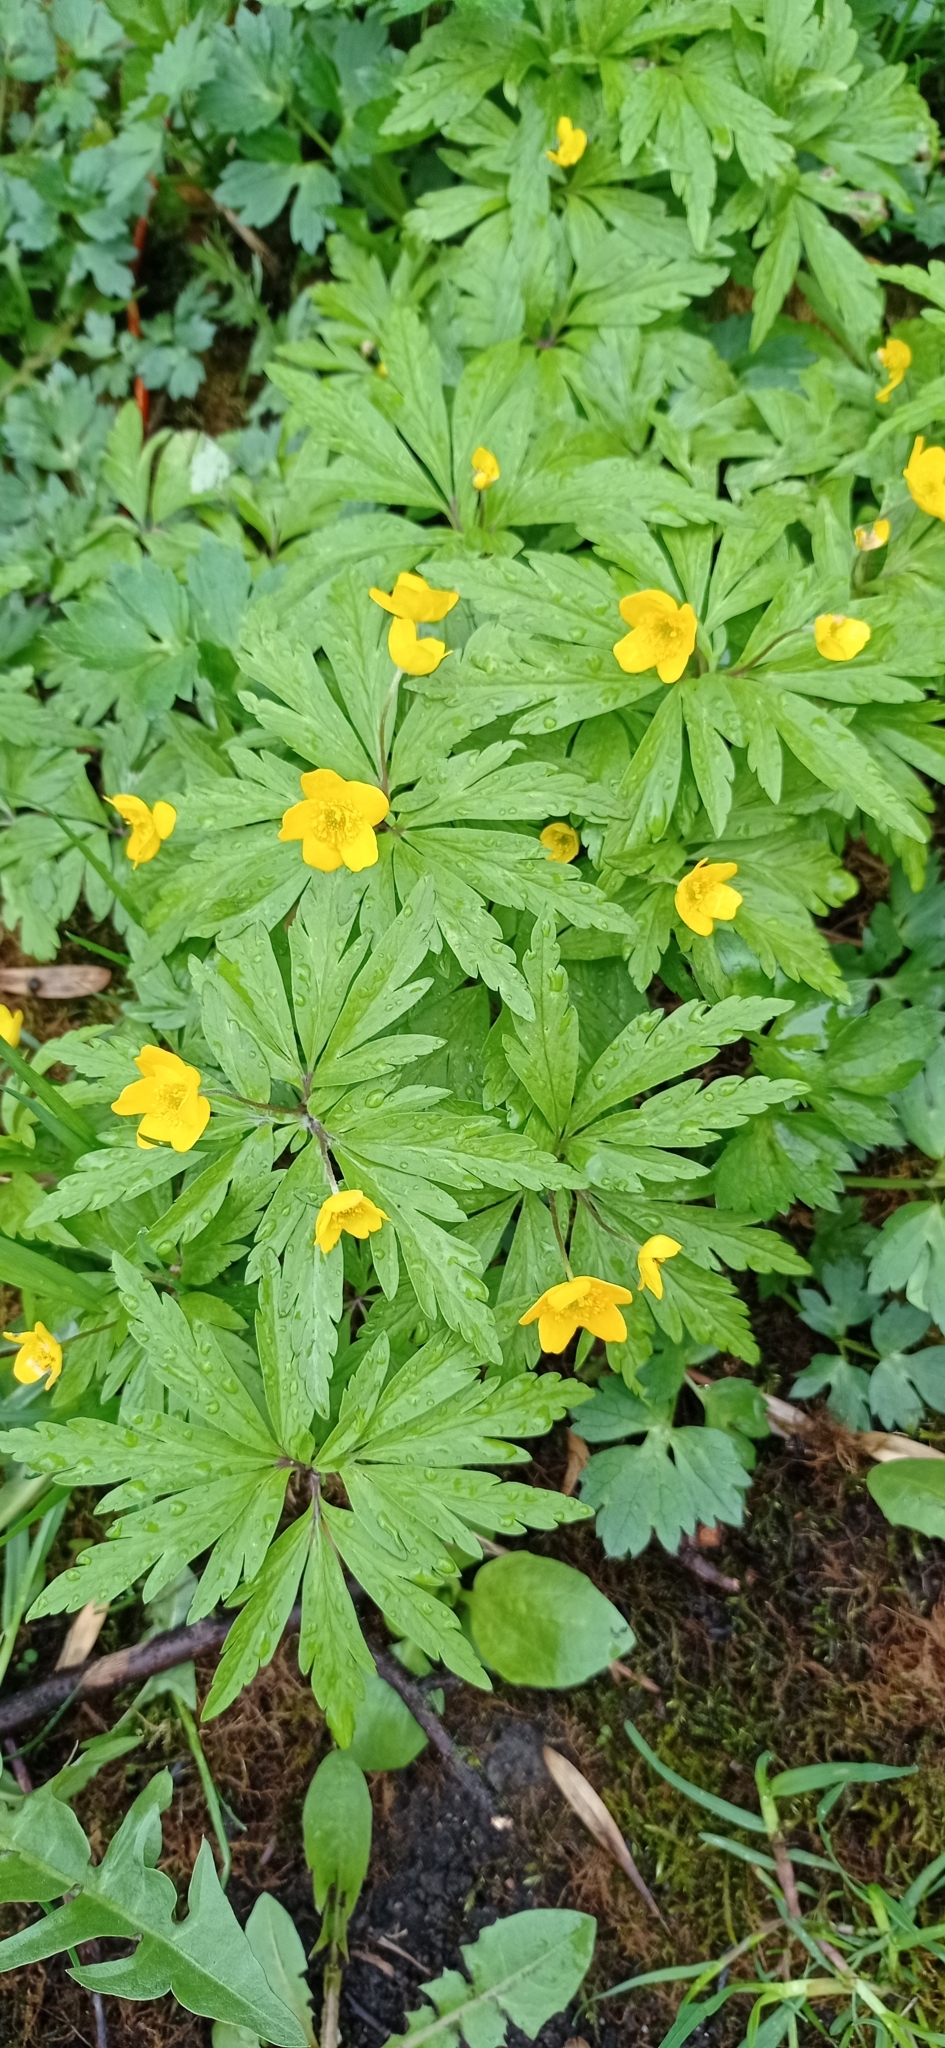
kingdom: Plantae
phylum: Tracheophyta
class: Magnoliopsida
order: Ranunculales
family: Ranunculaceae
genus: Anemone
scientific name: Anemone ranunculoides
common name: Yellow anemone
